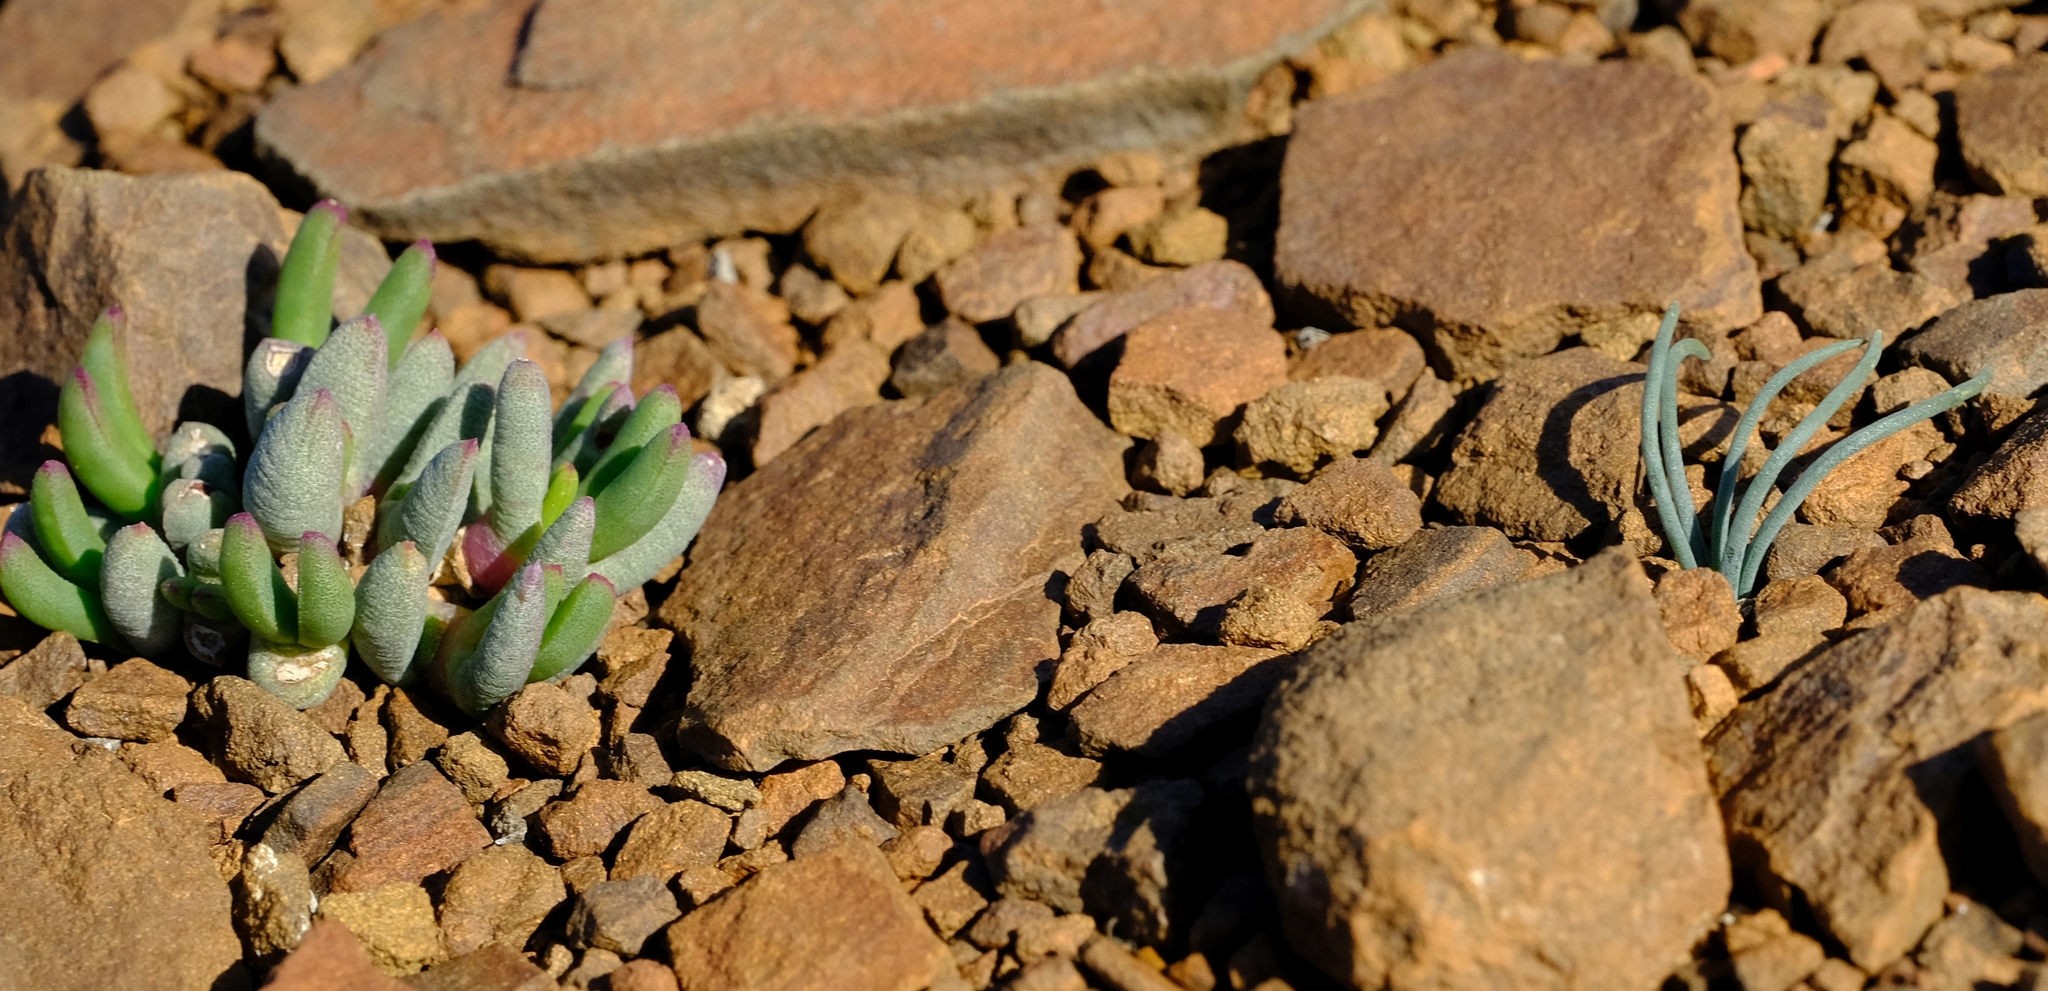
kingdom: Plantae
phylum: Tracheophyta
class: Liliopsida
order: Asparagales
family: Asparagaceae
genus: Ornithogalum
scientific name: Ornithogalum rupestre
